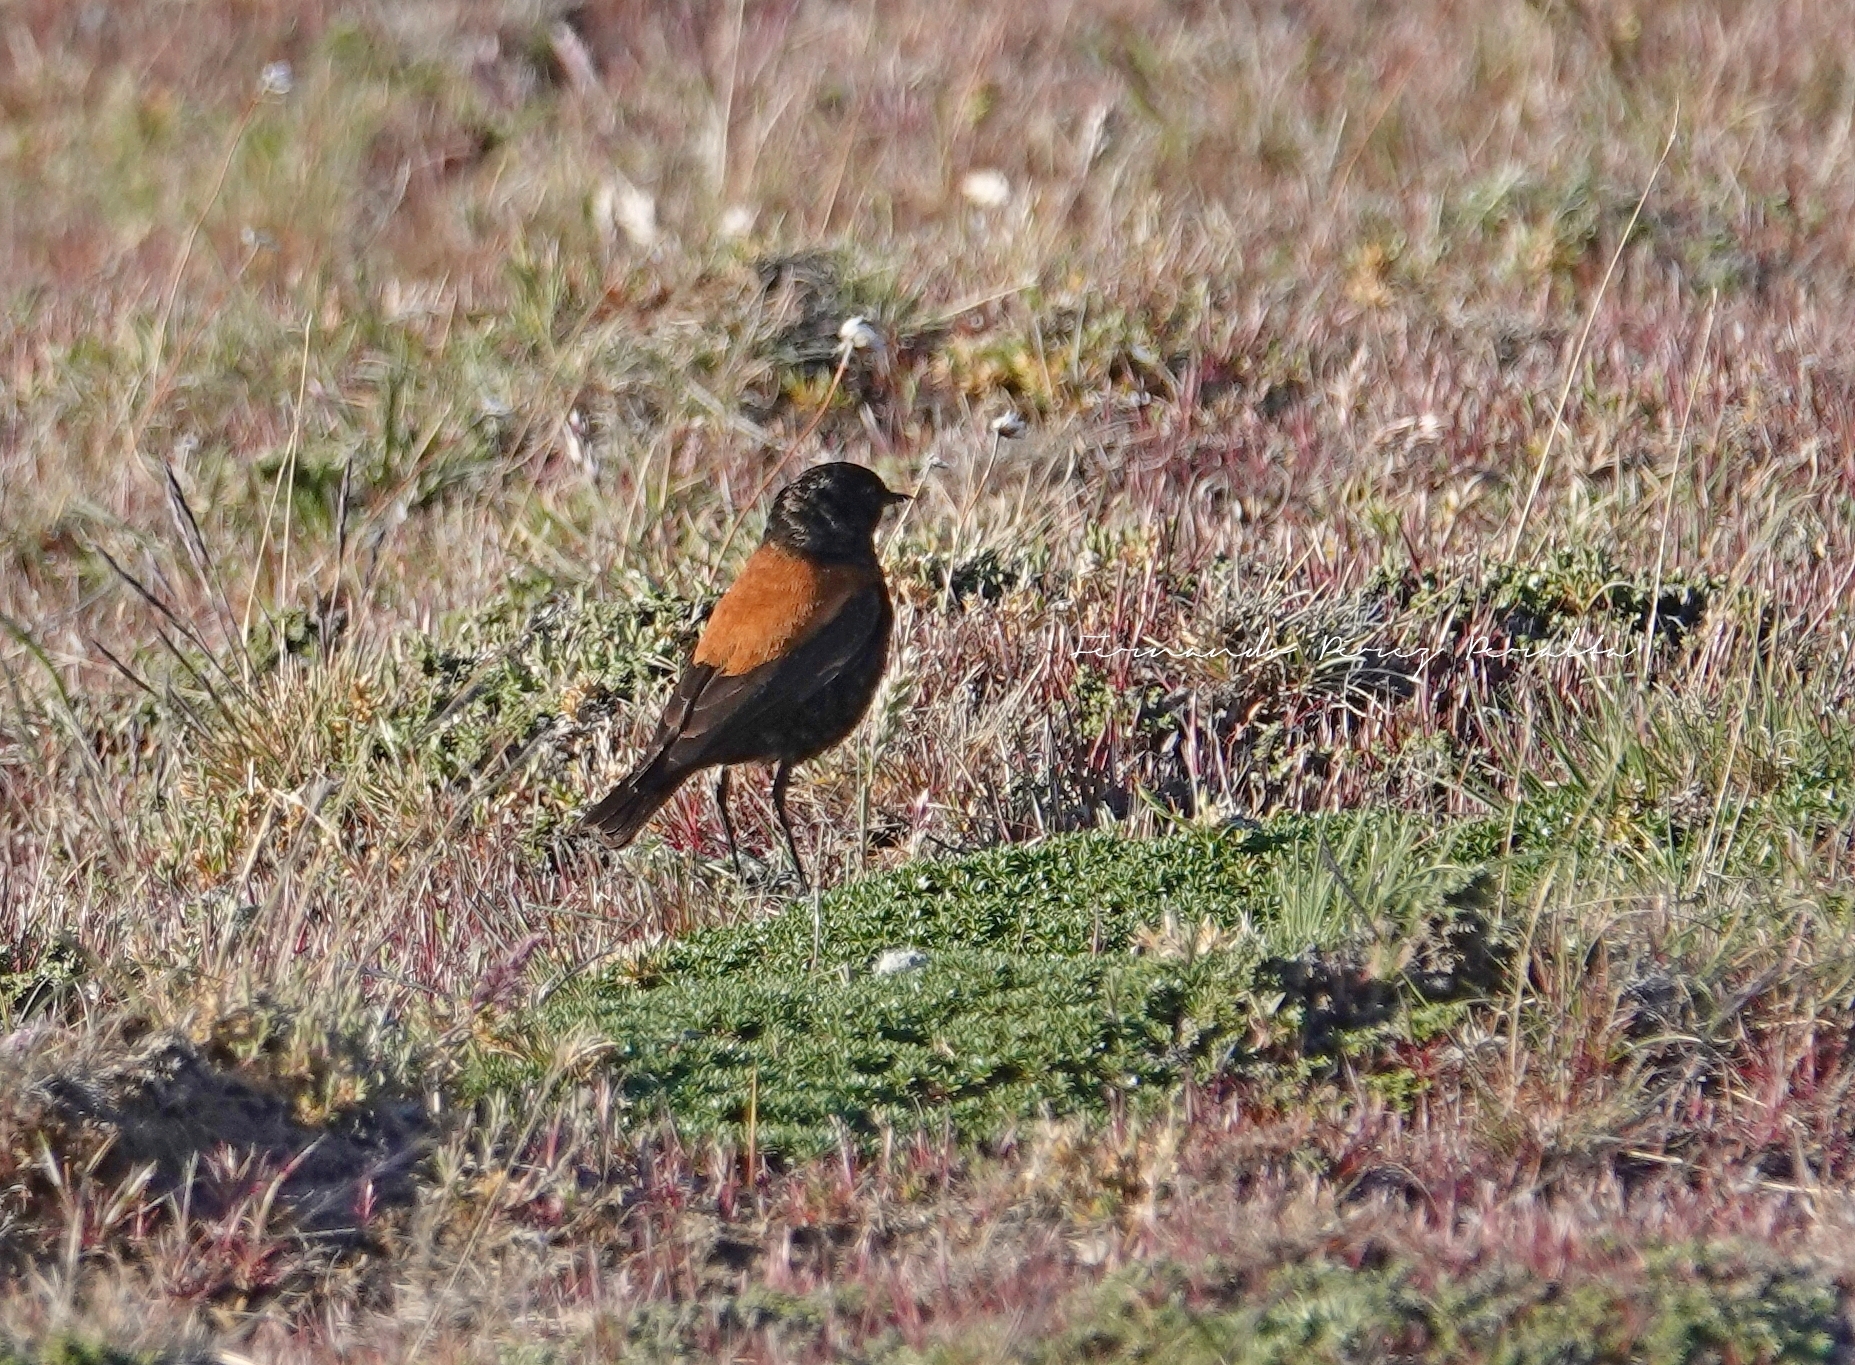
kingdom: Animalia
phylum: Chordata
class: Aves
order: Passeriformes
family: Tyrannidae
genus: Lessonia
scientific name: Lessonia rufa
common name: Austral negrito
